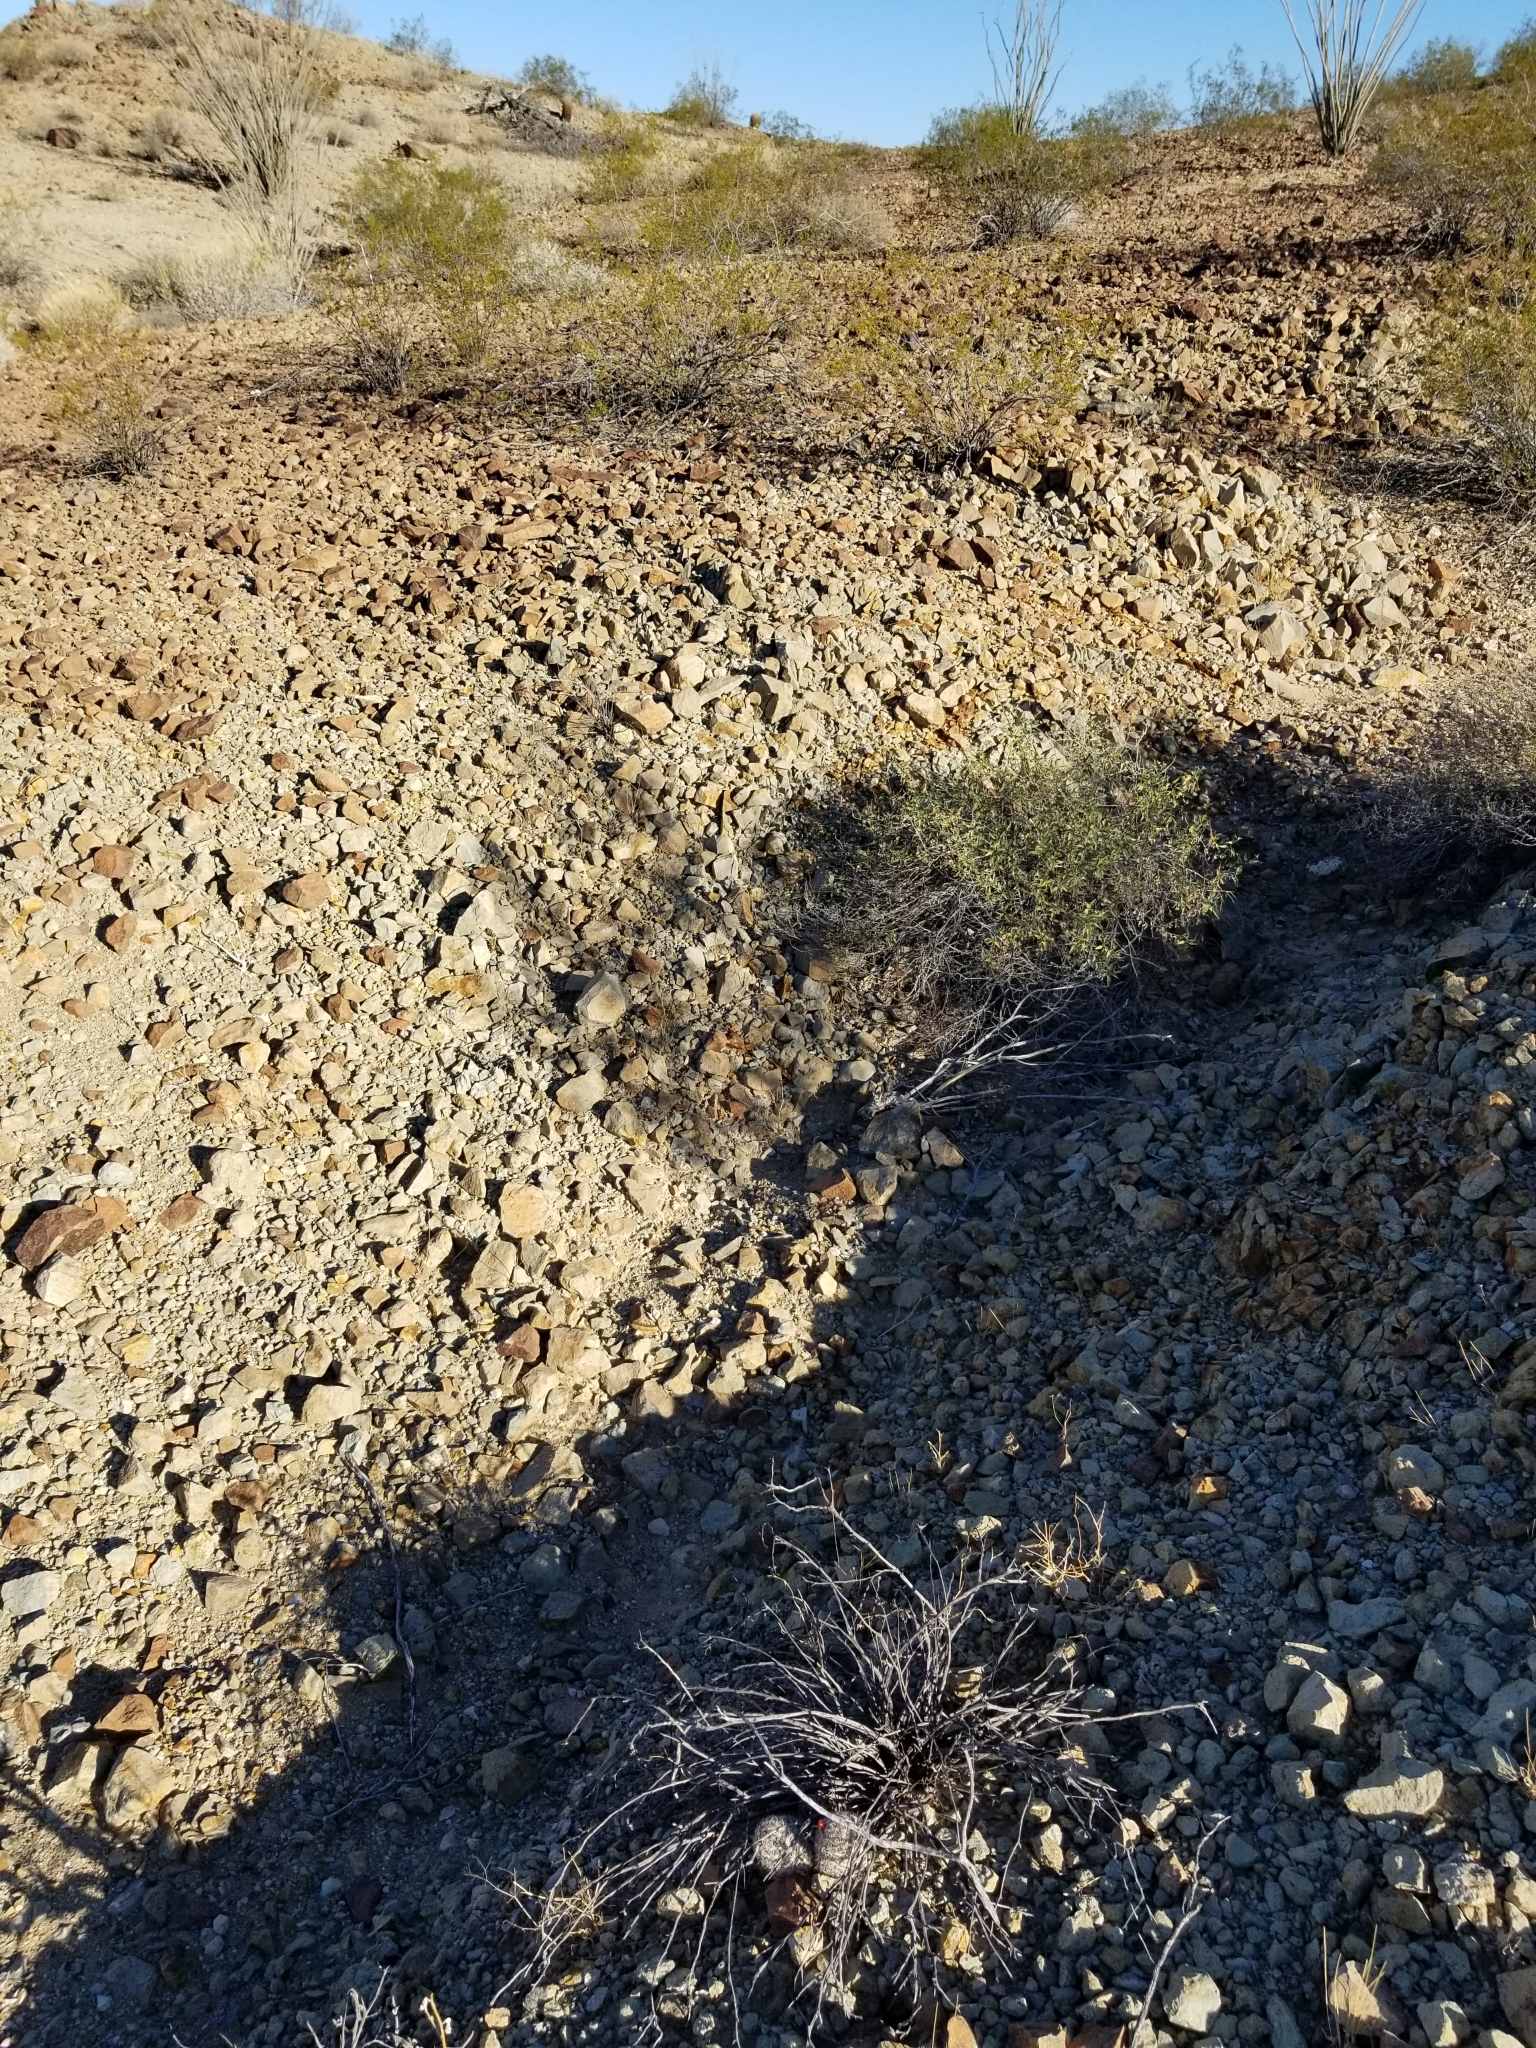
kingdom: Plantae
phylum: Tracheophyta
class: Magnoliopsida
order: Caryophyllales
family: Cactaceae
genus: Cochemiea
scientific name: Cochemiea grahamii
